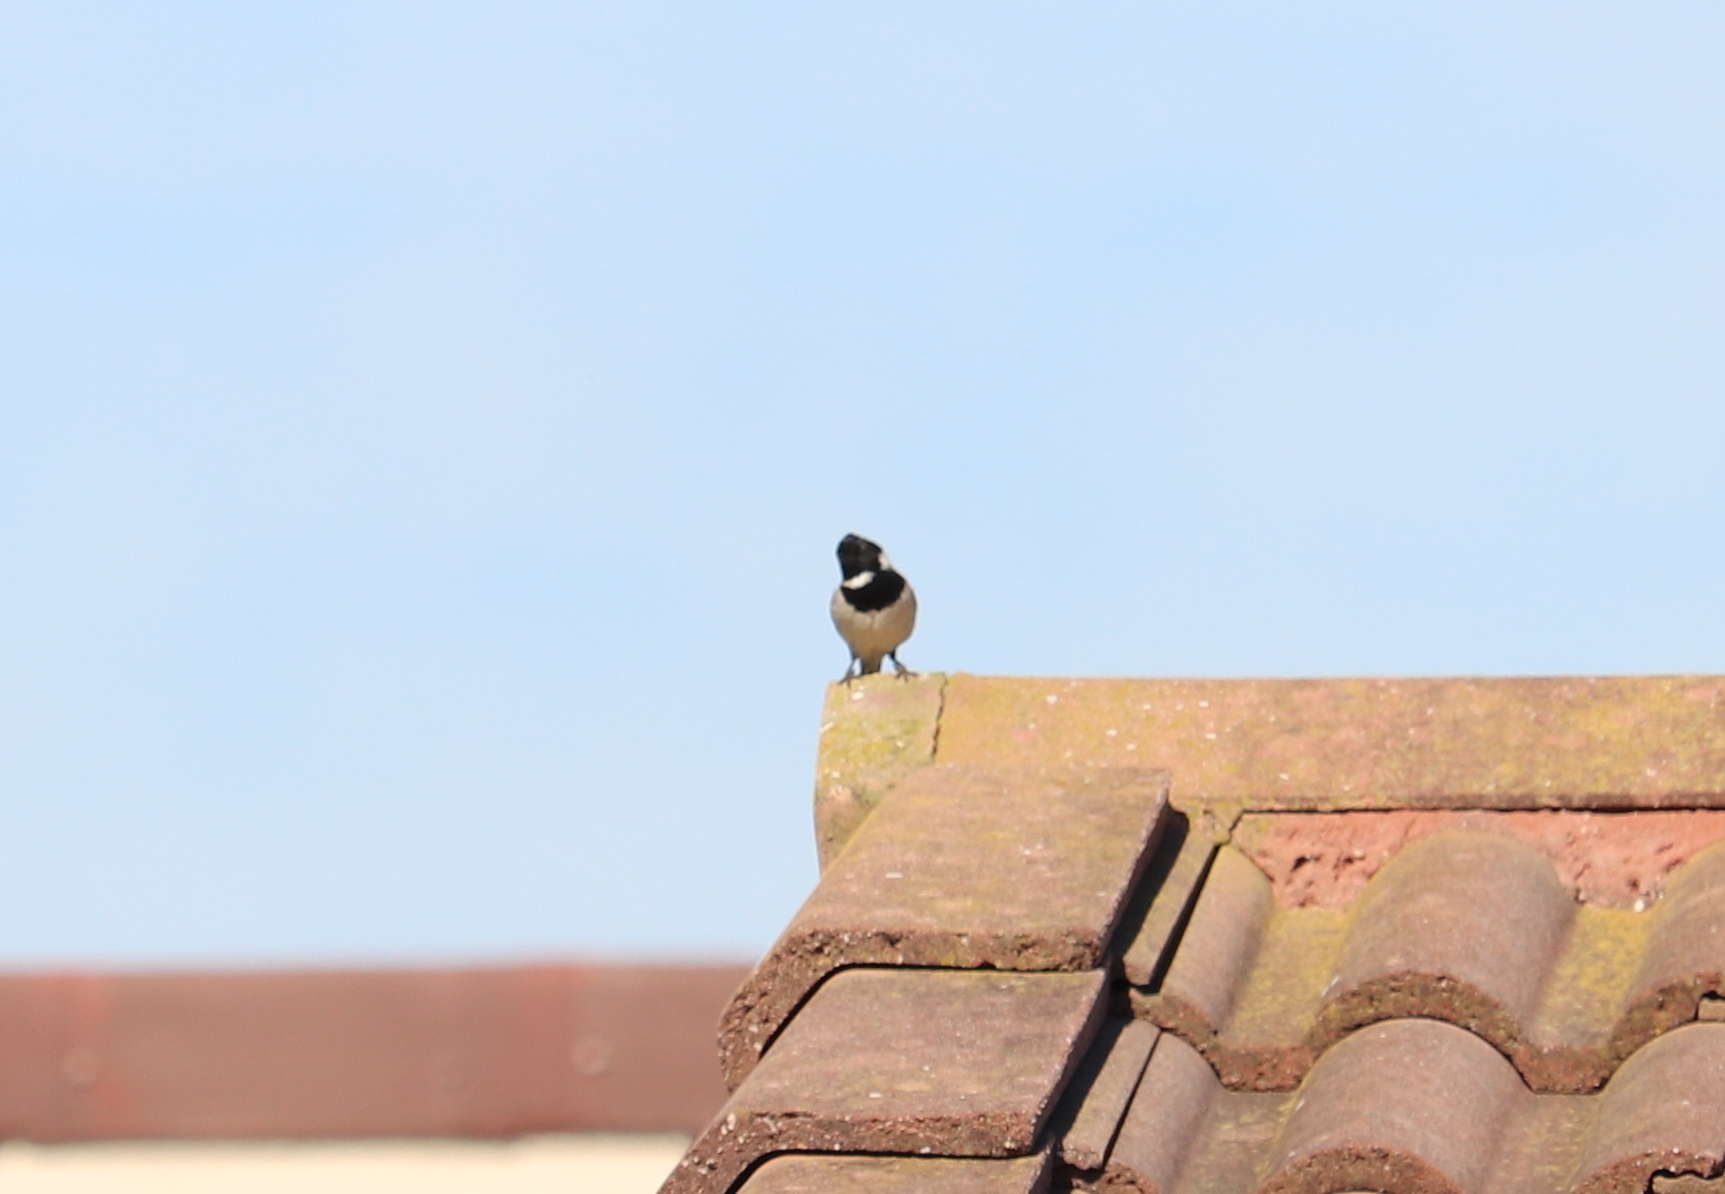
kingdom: Animalia
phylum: Chordata
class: Aves
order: Passeriformes
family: Passeridae
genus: Passer
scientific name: Passer melanurus
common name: Cape sparrow
